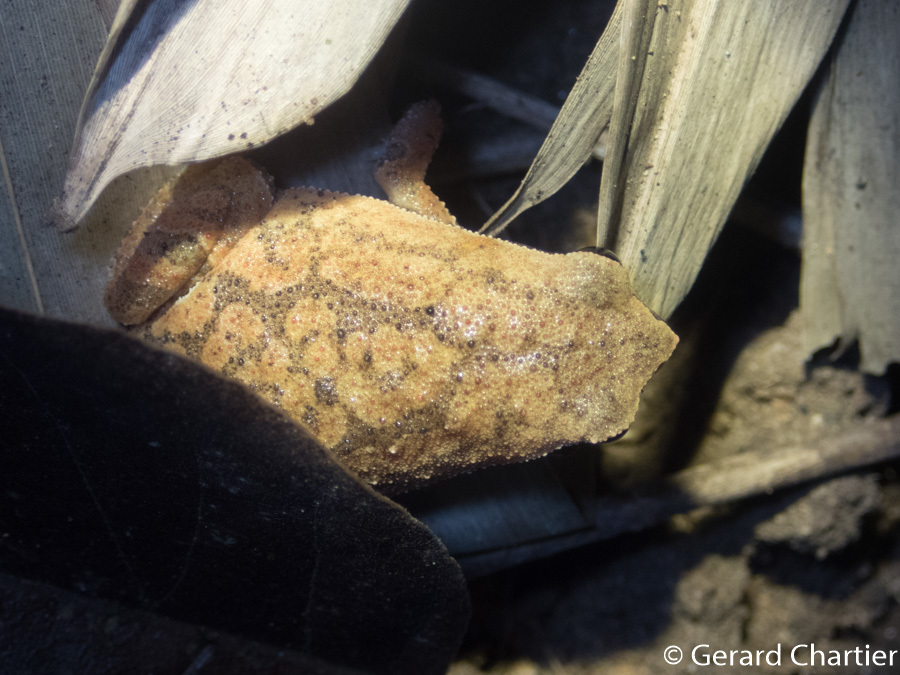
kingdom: Animalia
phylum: Chordata
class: Amphibia
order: Anura
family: Microhylidae
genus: Kalophrynus
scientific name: Kalophrynus interlineatus
